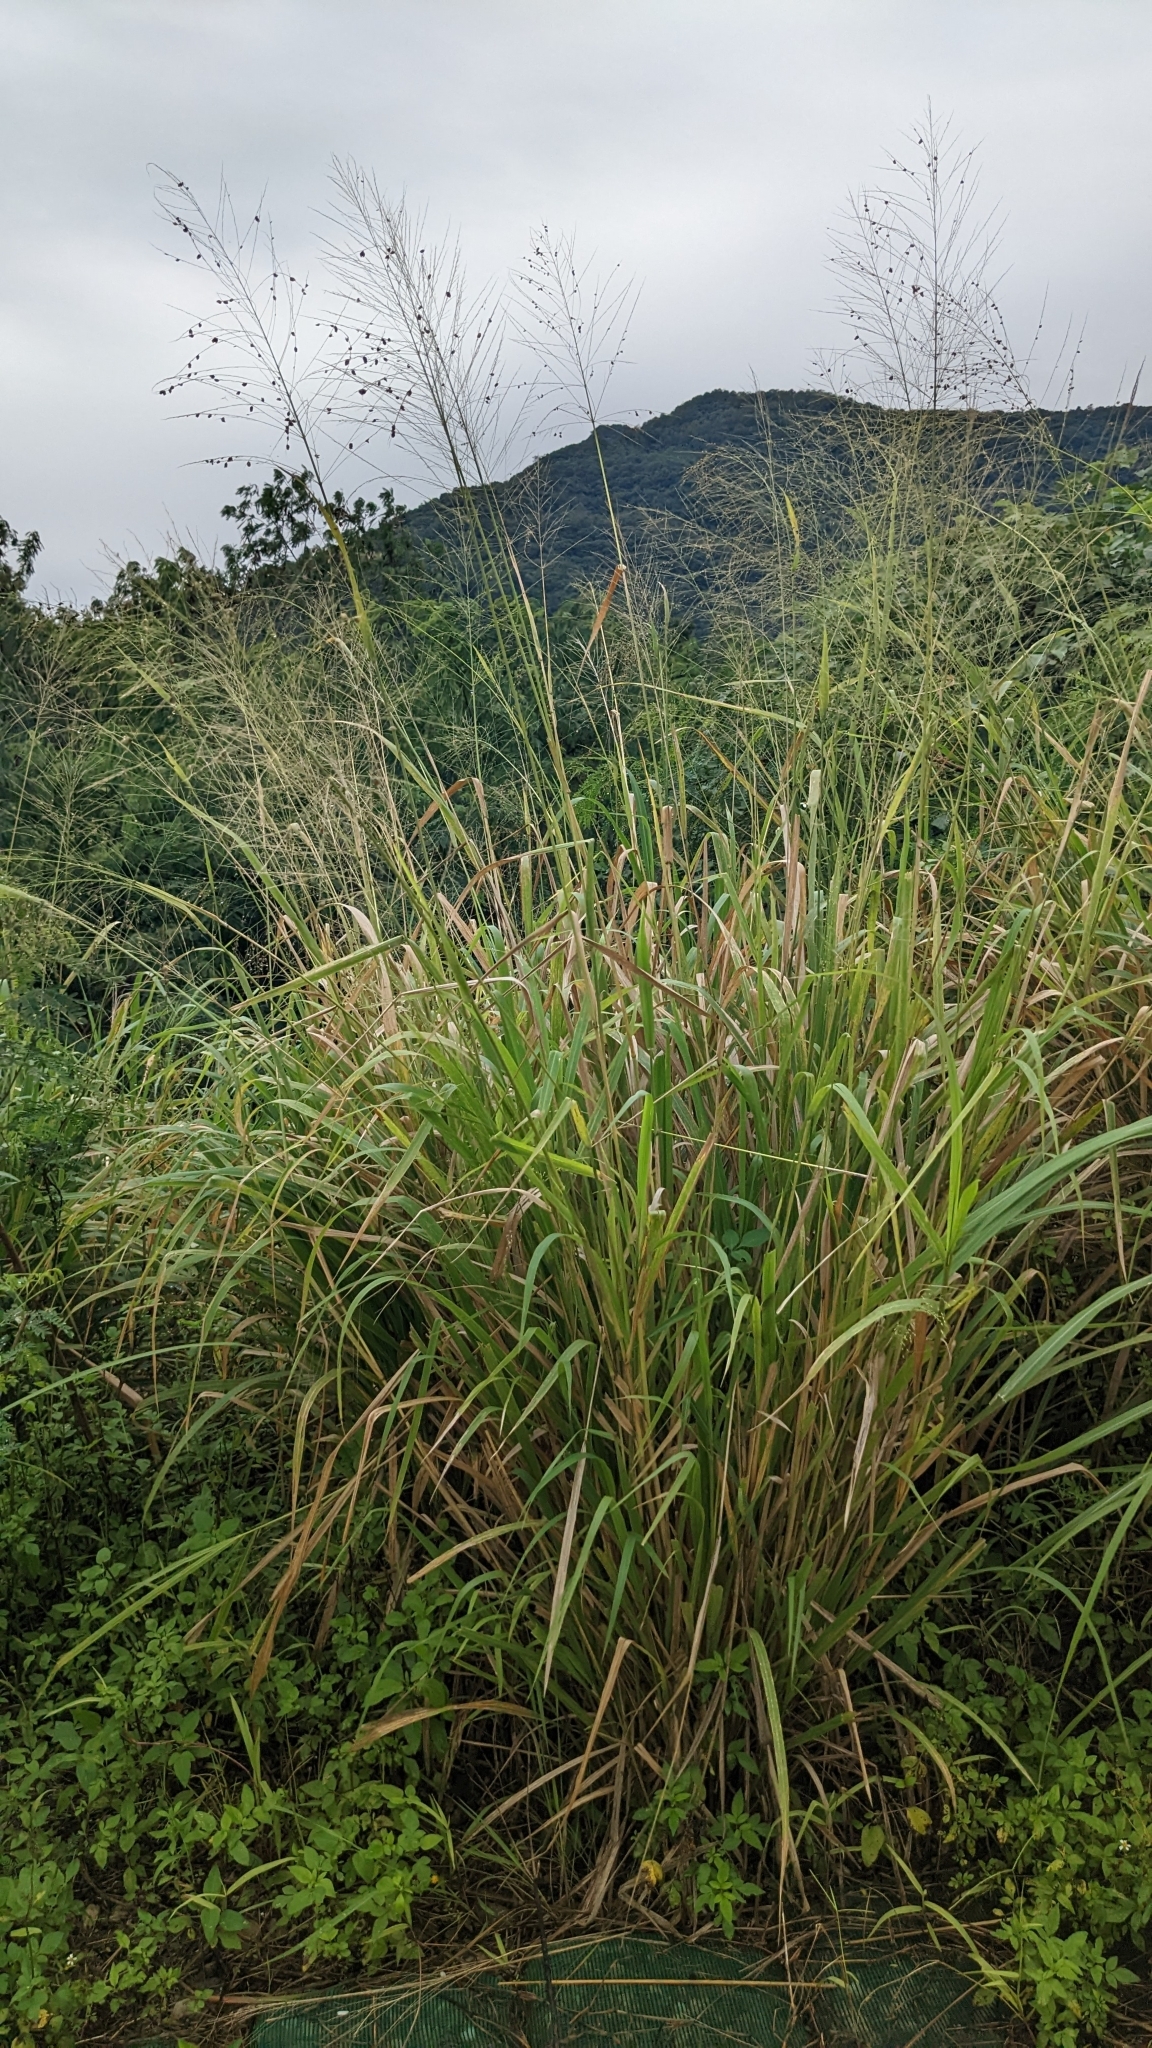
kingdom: Plantae
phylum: Tracheophyta
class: Liliopsida
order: Poales
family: Poaceae
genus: Megathyrsus
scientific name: Megathyrsus maximus
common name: Guineagrass
